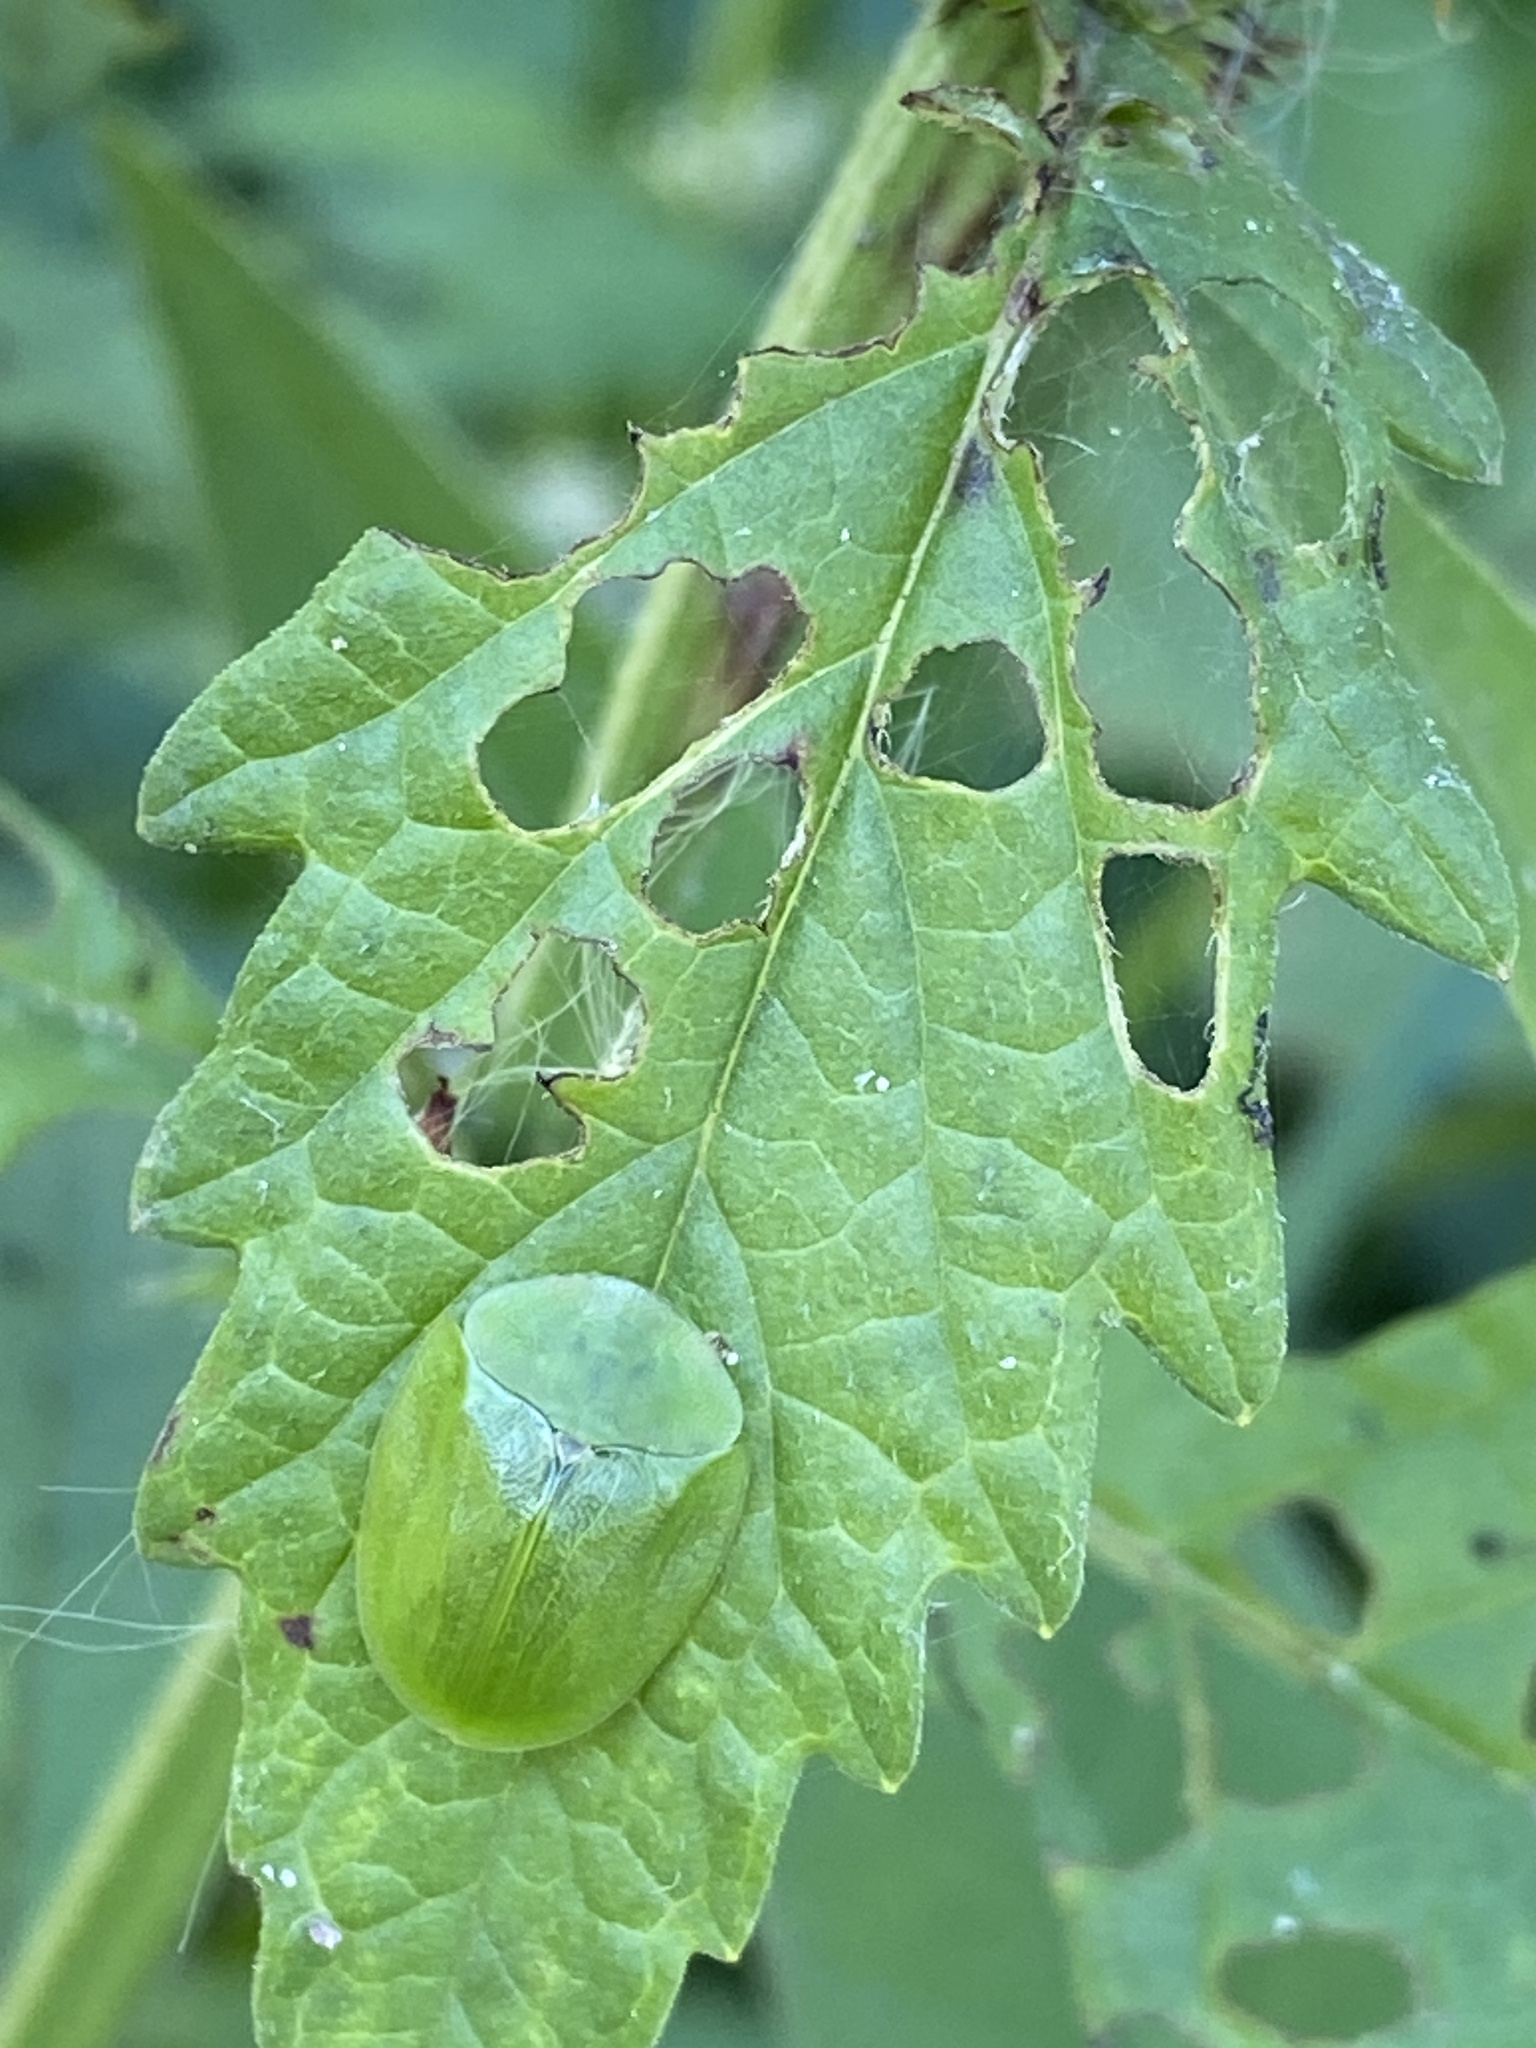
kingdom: Animalia
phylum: Arthropoda
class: Insecta
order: Coleoptera
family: Chrysomelidae
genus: Cassida
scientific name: Cassida viridis
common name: Green tortoise beetle
